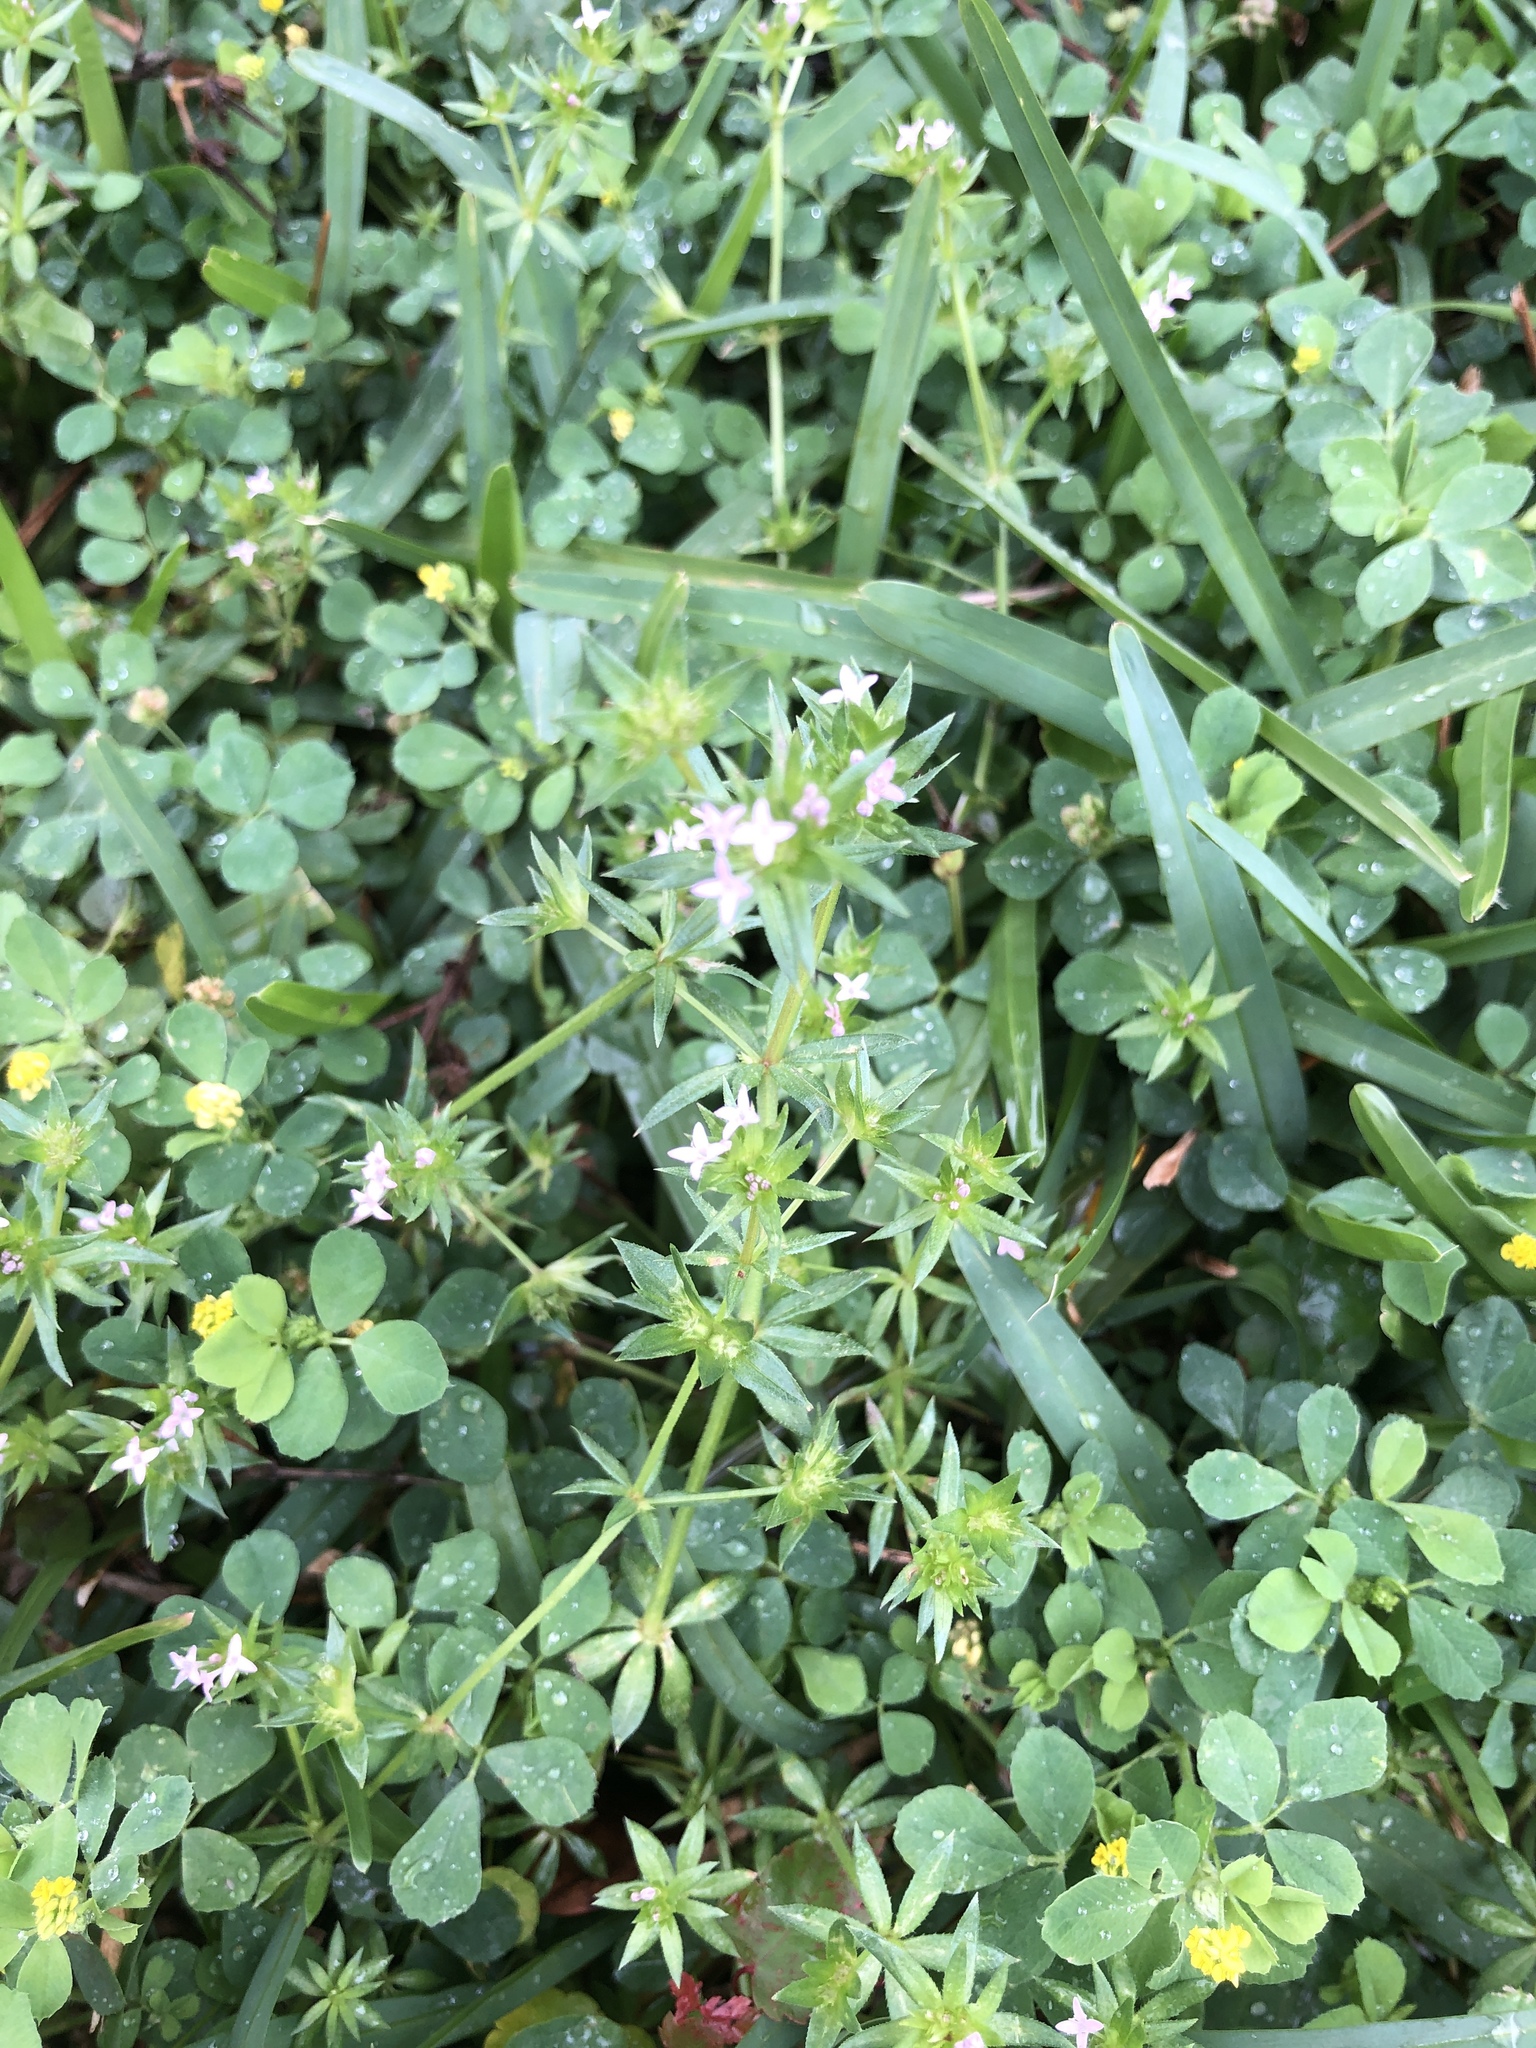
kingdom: Plantae
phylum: Tracheophyta
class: Magnoliopsida
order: Gentianales
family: Rubiaceae
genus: Sherardia
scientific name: Sherardia arvensis
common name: Field madder
